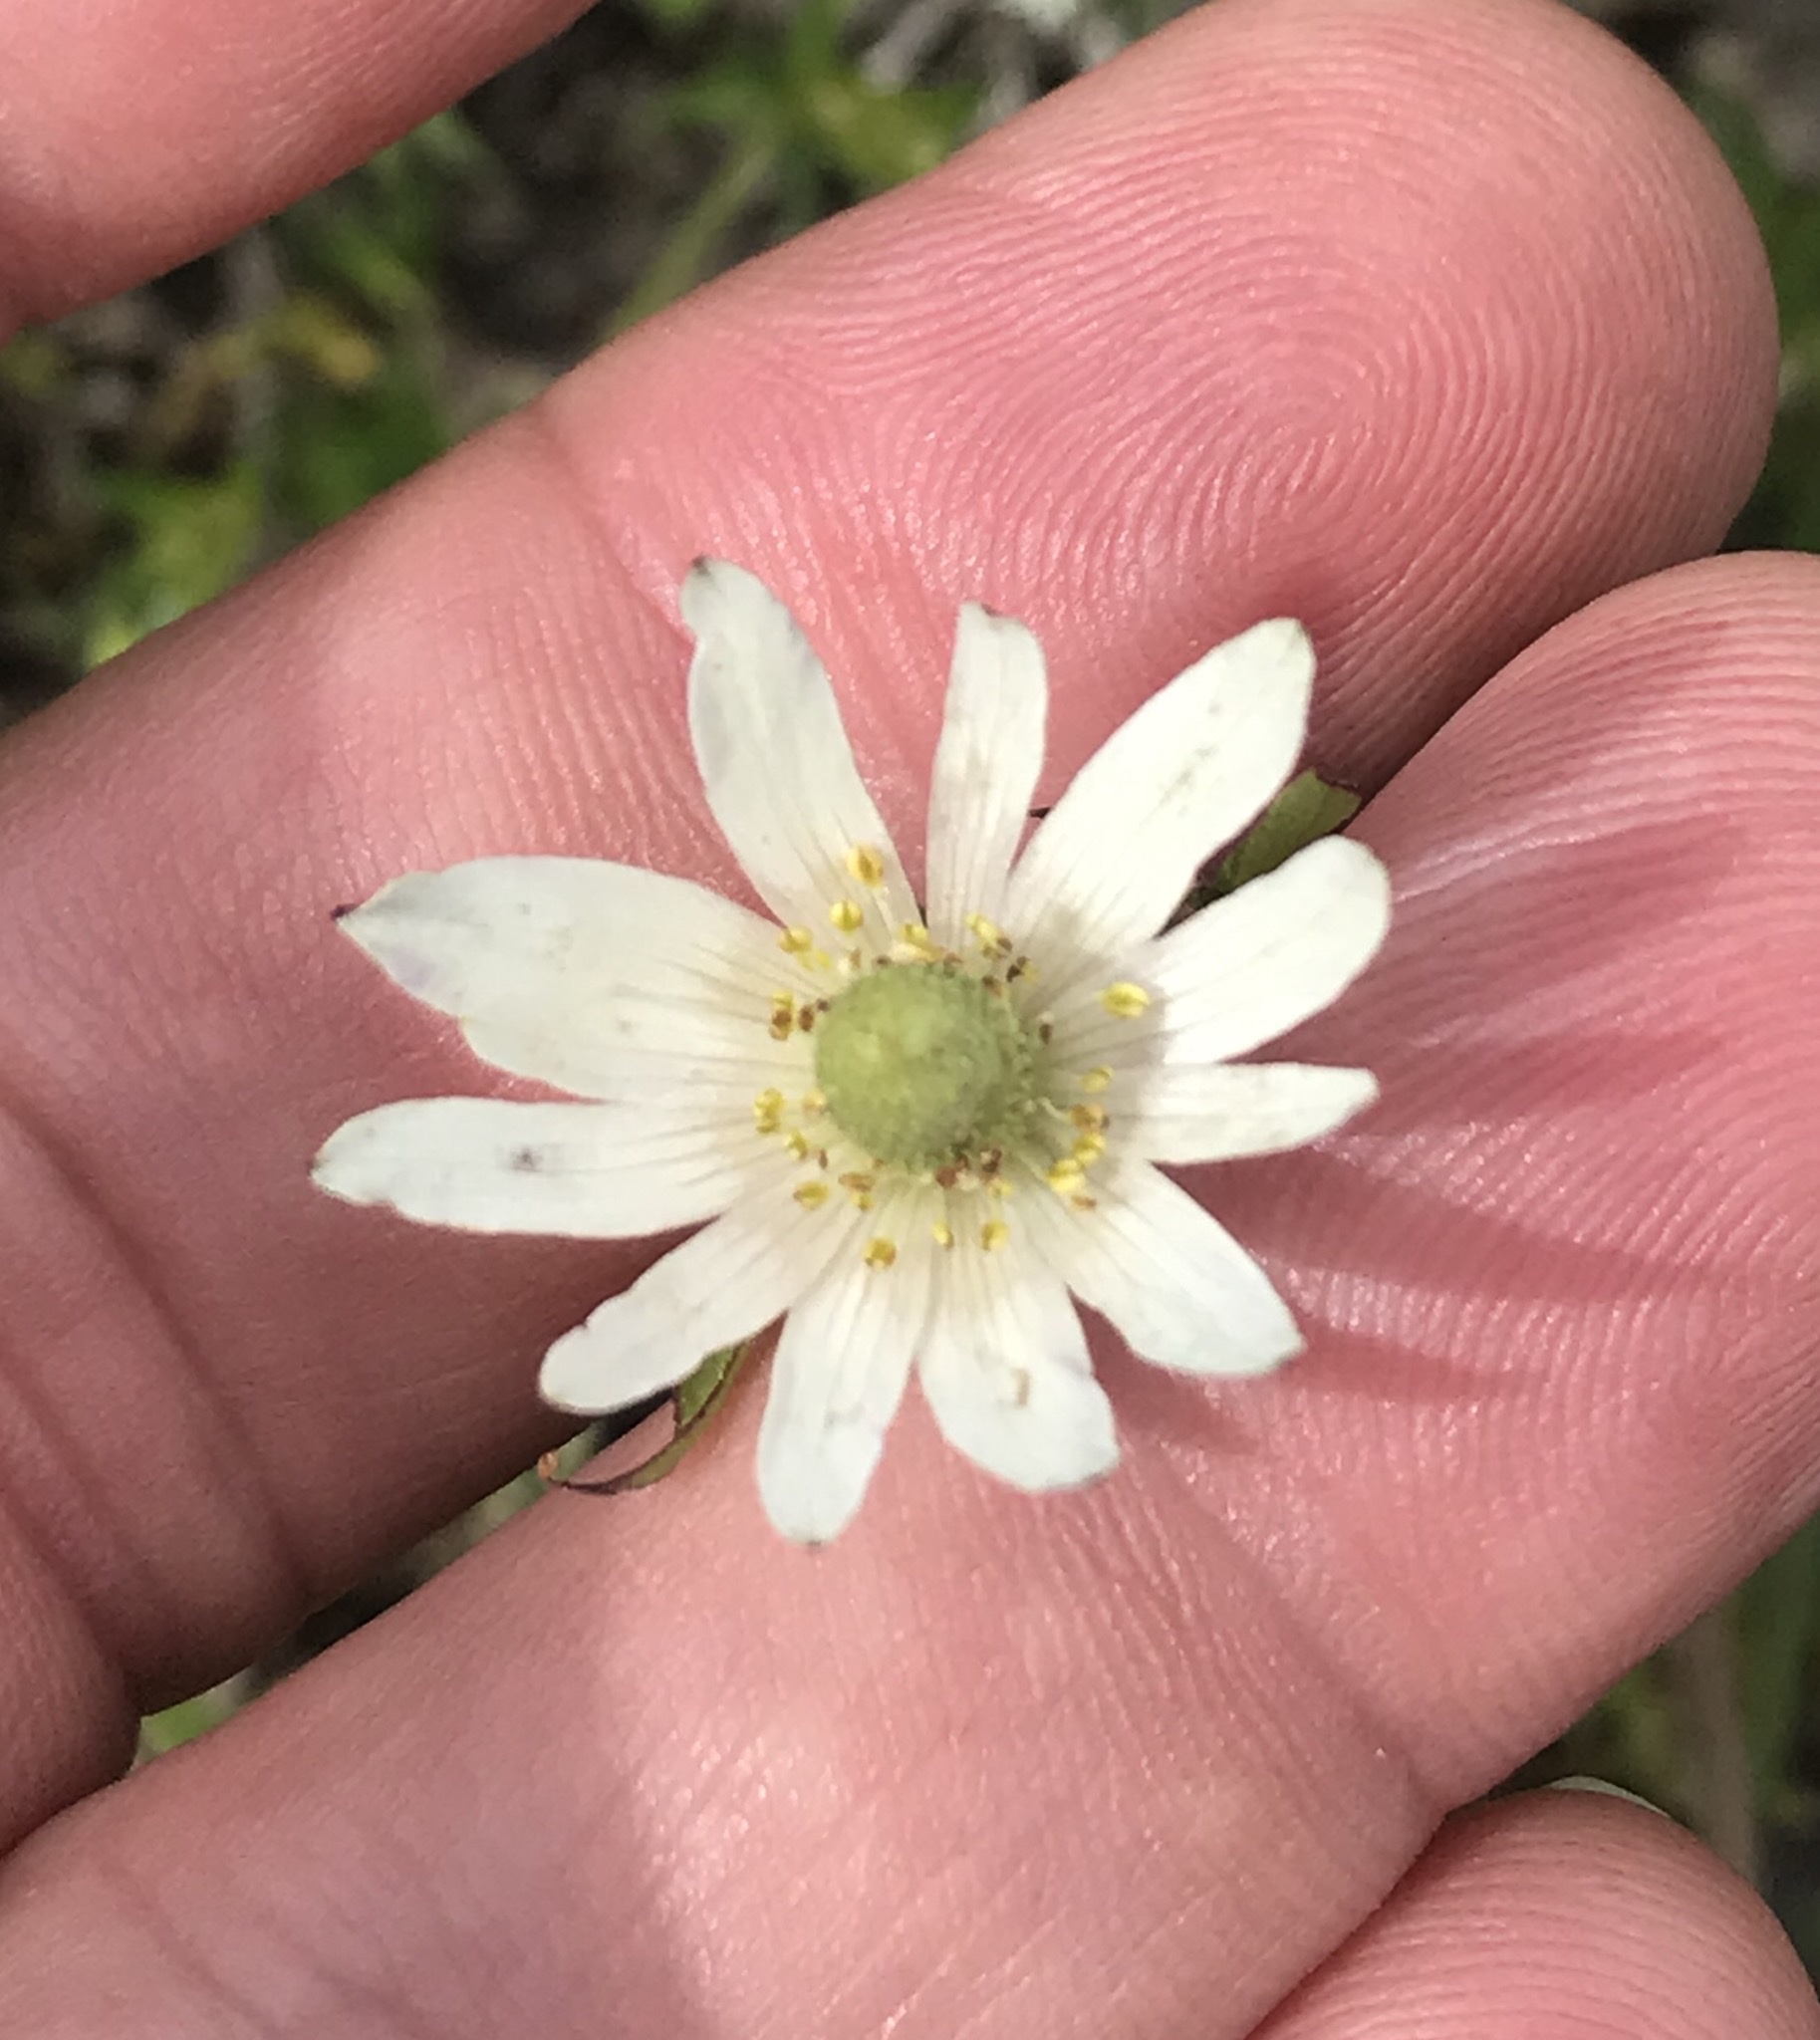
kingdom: Plantae
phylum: Tracheophyta
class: Magnoliopsida
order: Ranunculales
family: Ranunculaceae
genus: Anemone
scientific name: Anemone berlandieri
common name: Ten-petal anemone
